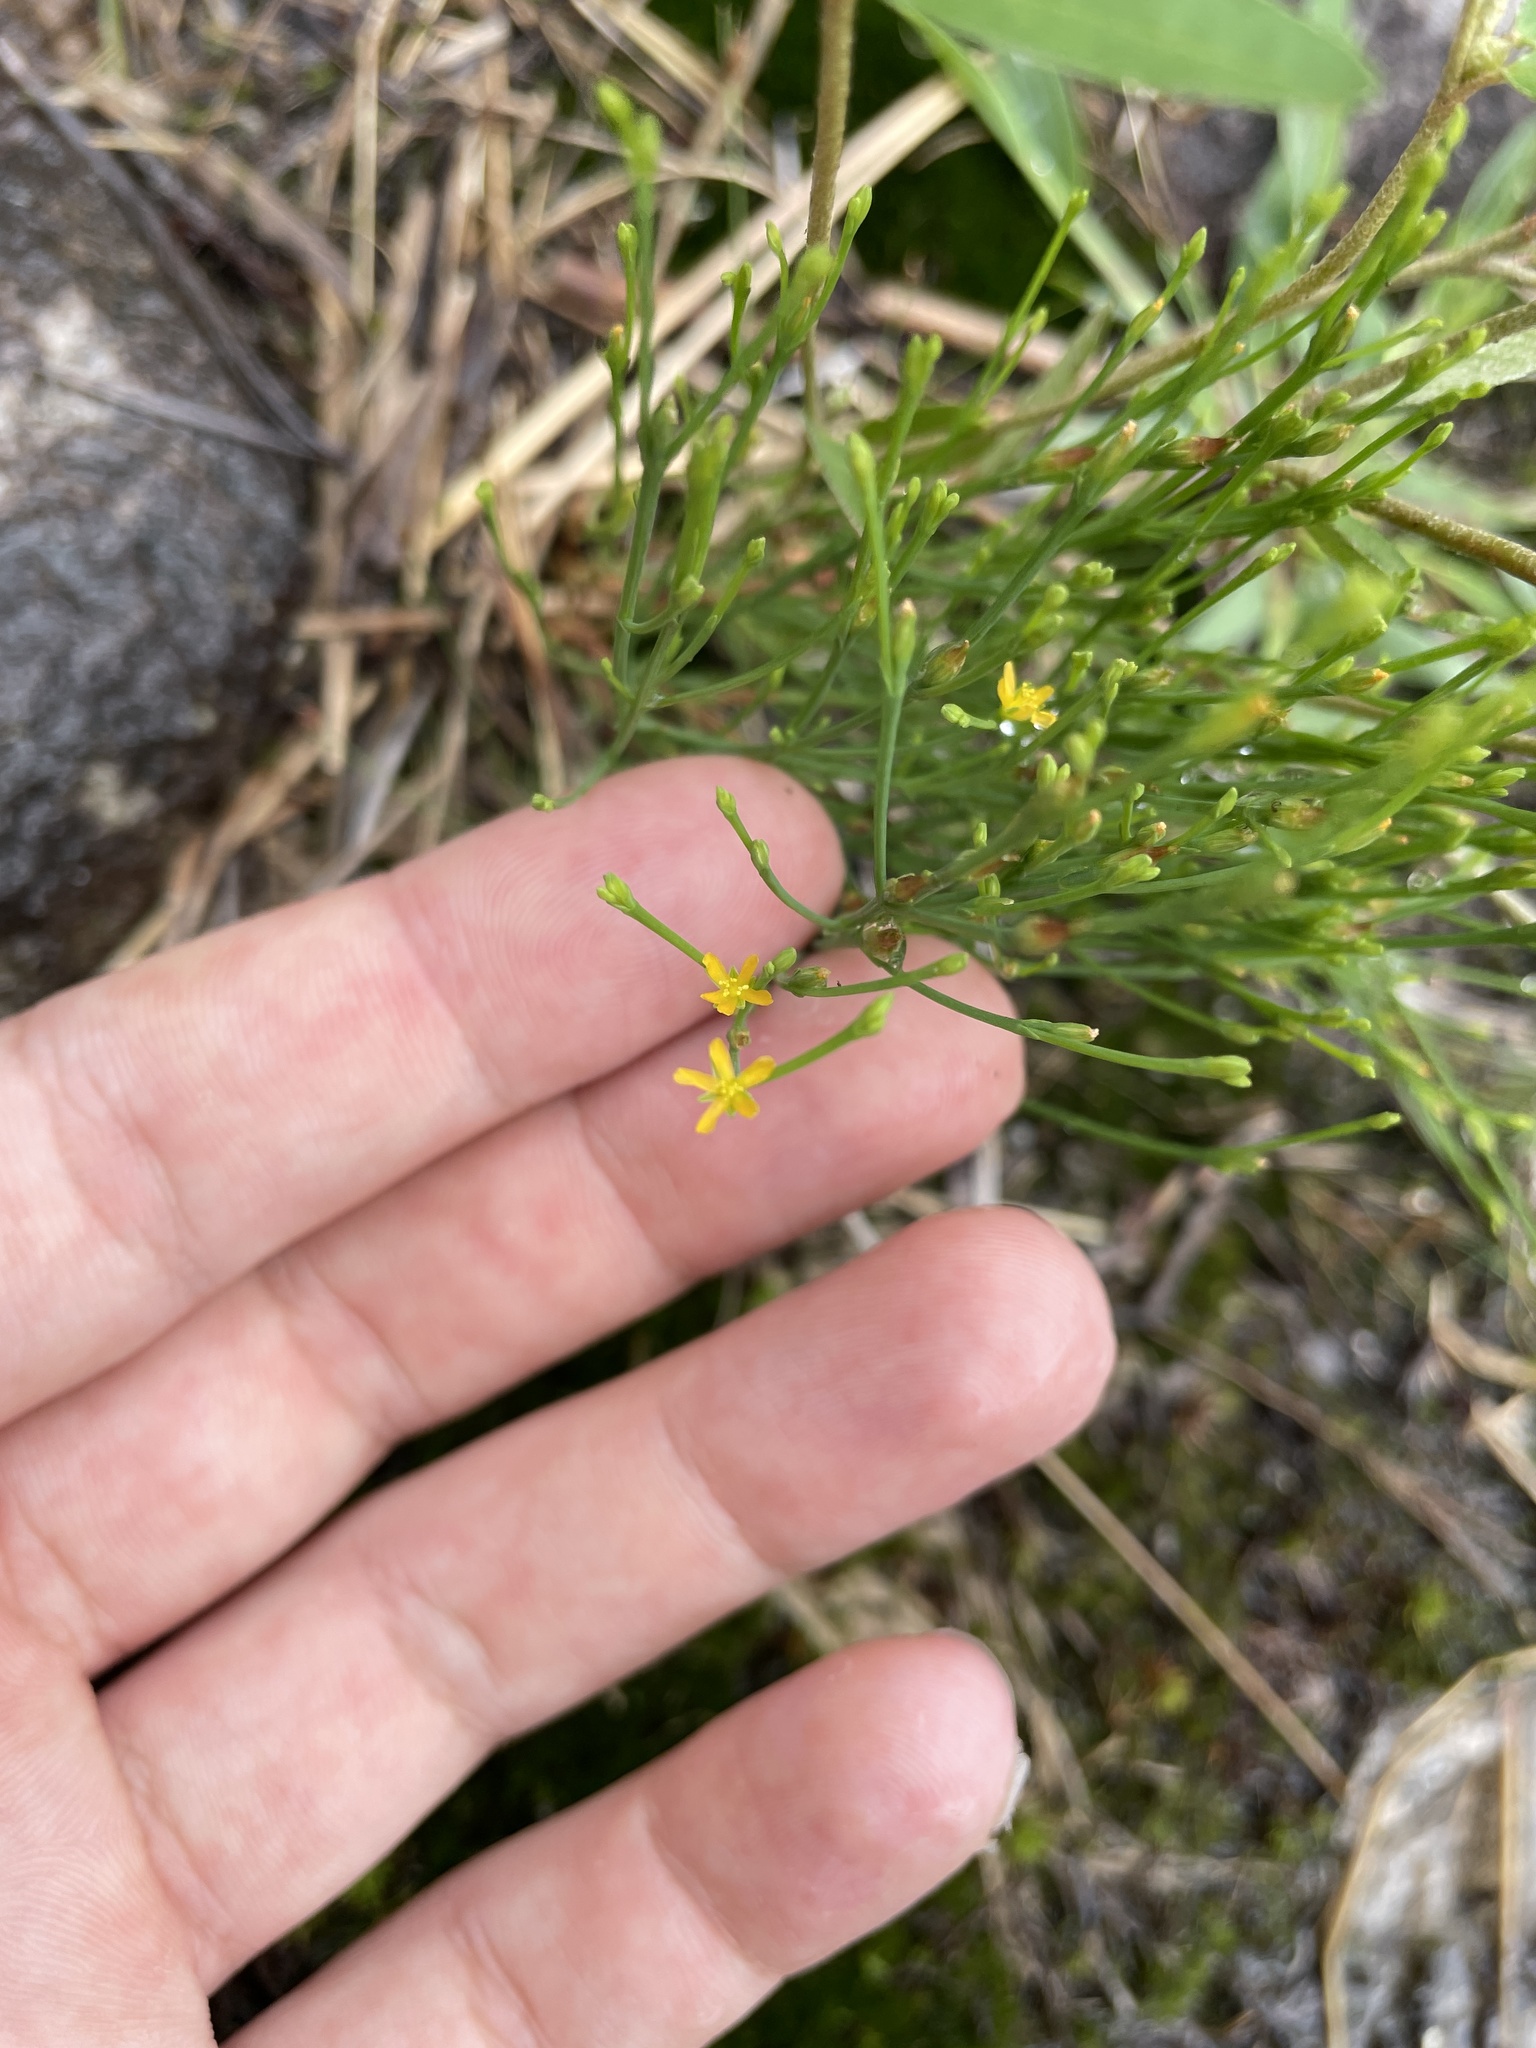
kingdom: Plantae
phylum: Tracheophyta
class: Magnoliopsida
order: Malpighiales
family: Hypericaceae
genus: Hypericum
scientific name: Hypericum gentianoides
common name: Gentian-leaved st. john's-wort
